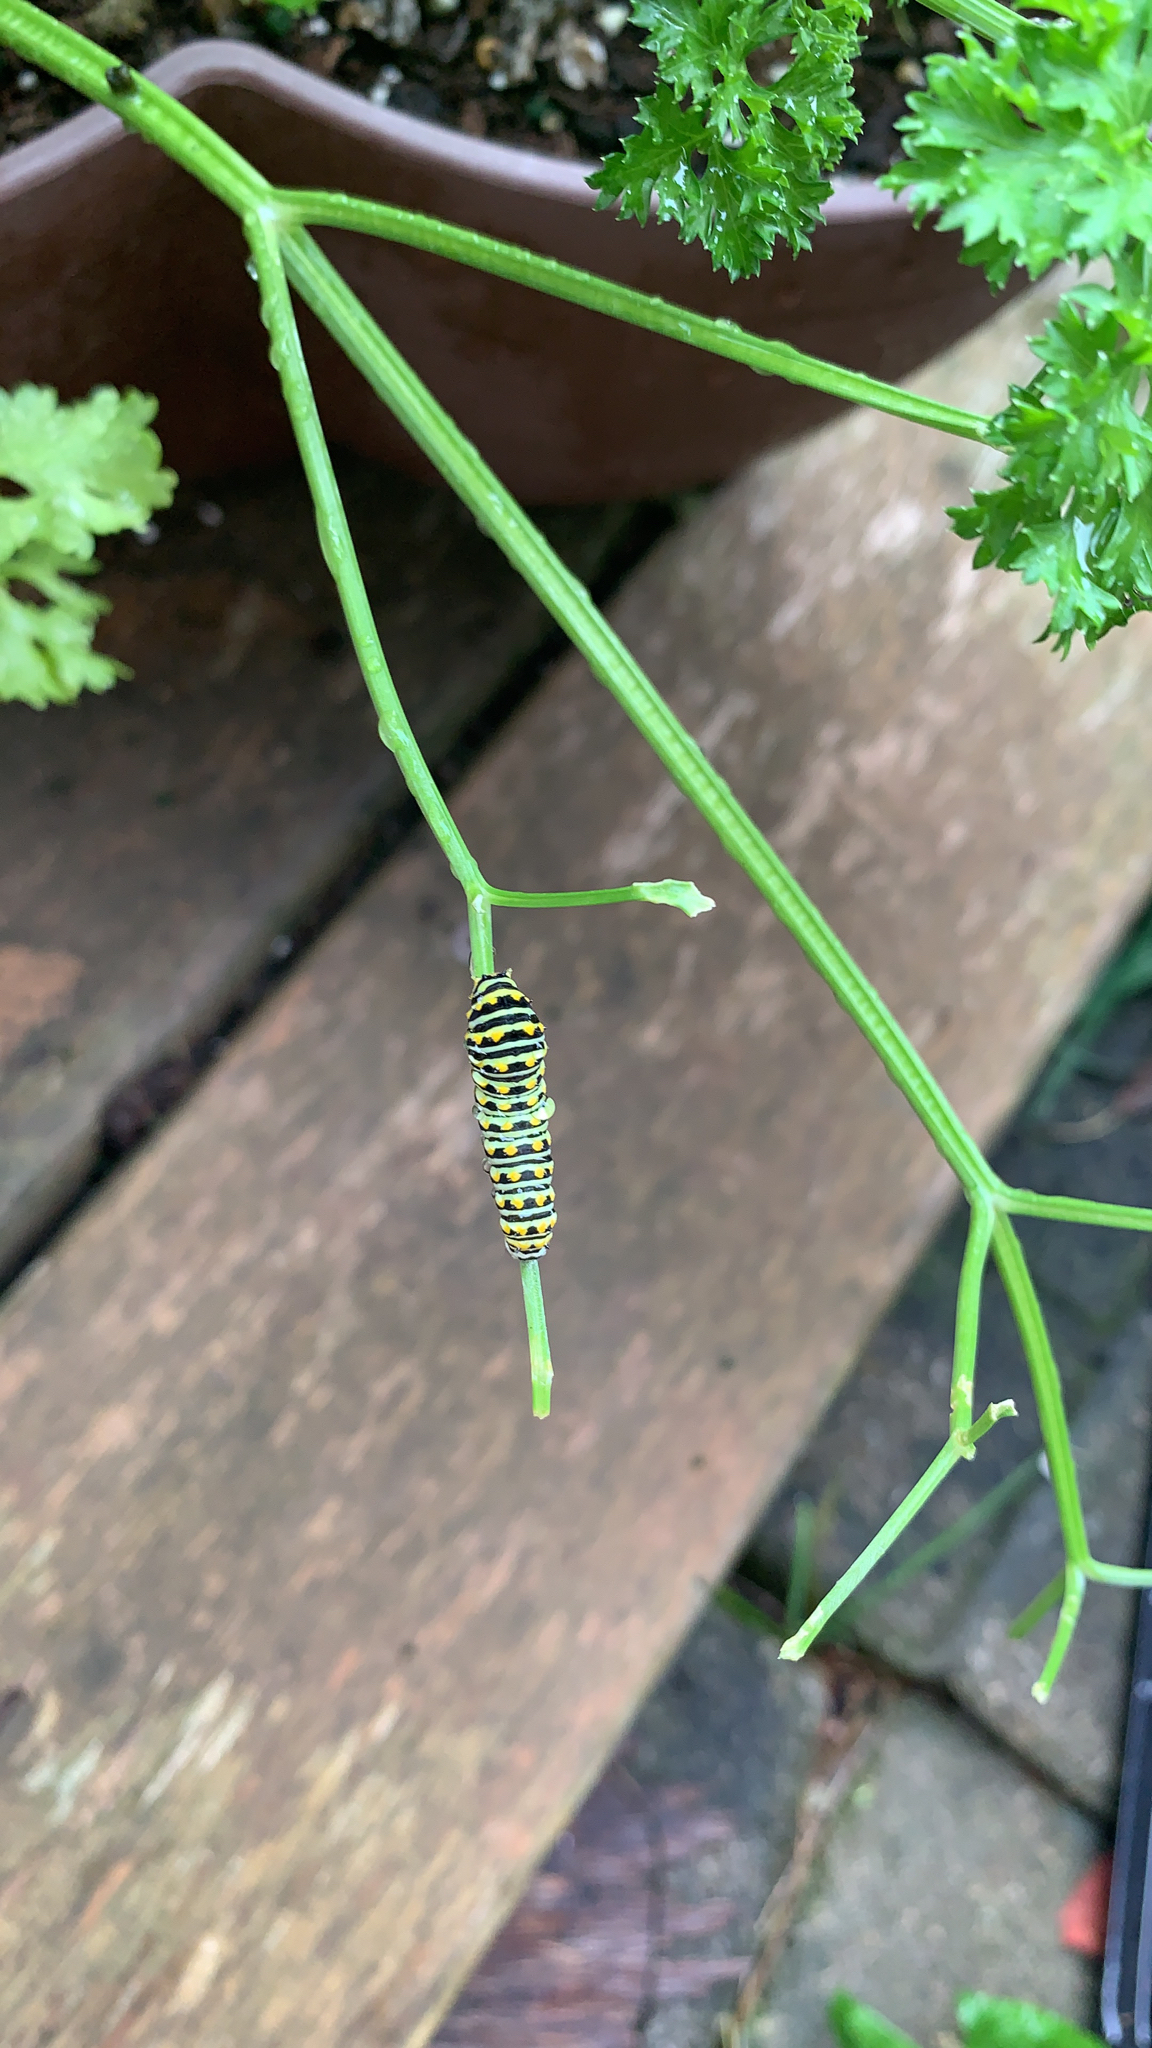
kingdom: Animalia
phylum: Arthropoda
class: Insecta
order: Lepidoptera
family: Papilionidae
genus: Papilio
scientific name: Papilio polyxenes
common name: Black swallowtail
